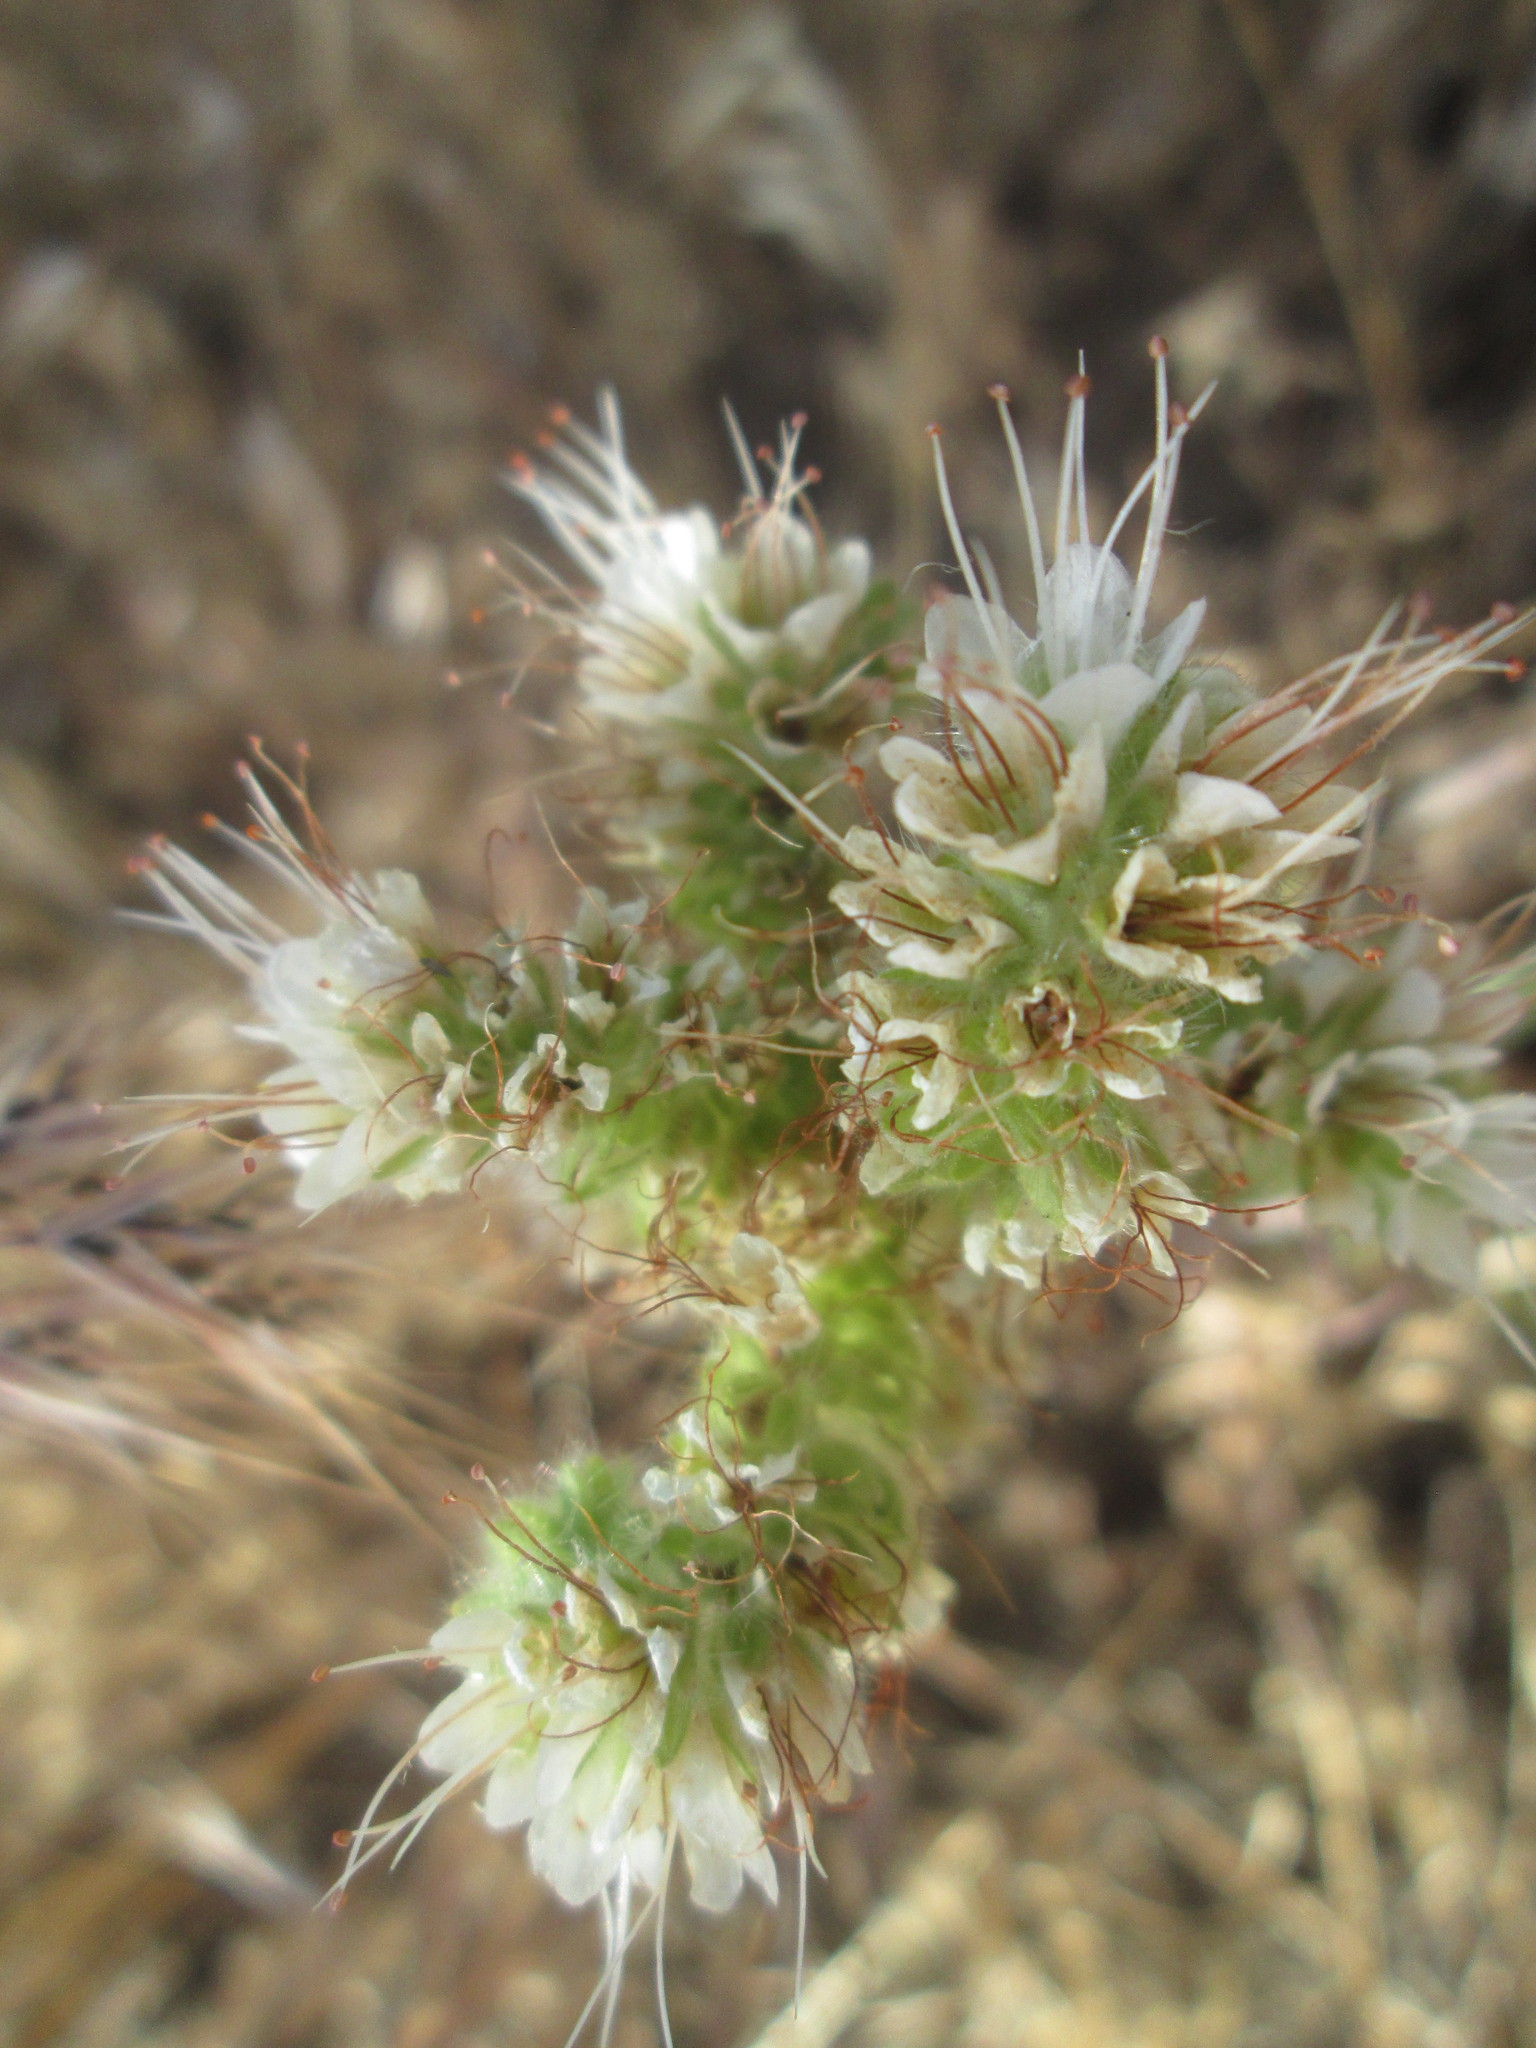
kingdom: Plantae
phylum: Tracheophyta
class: Magnoliopsida
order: Boraginales
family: Hydrophyllaceae
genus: Phacelia
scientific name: Phacelia hastata
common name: Silver-leaved phacelia
